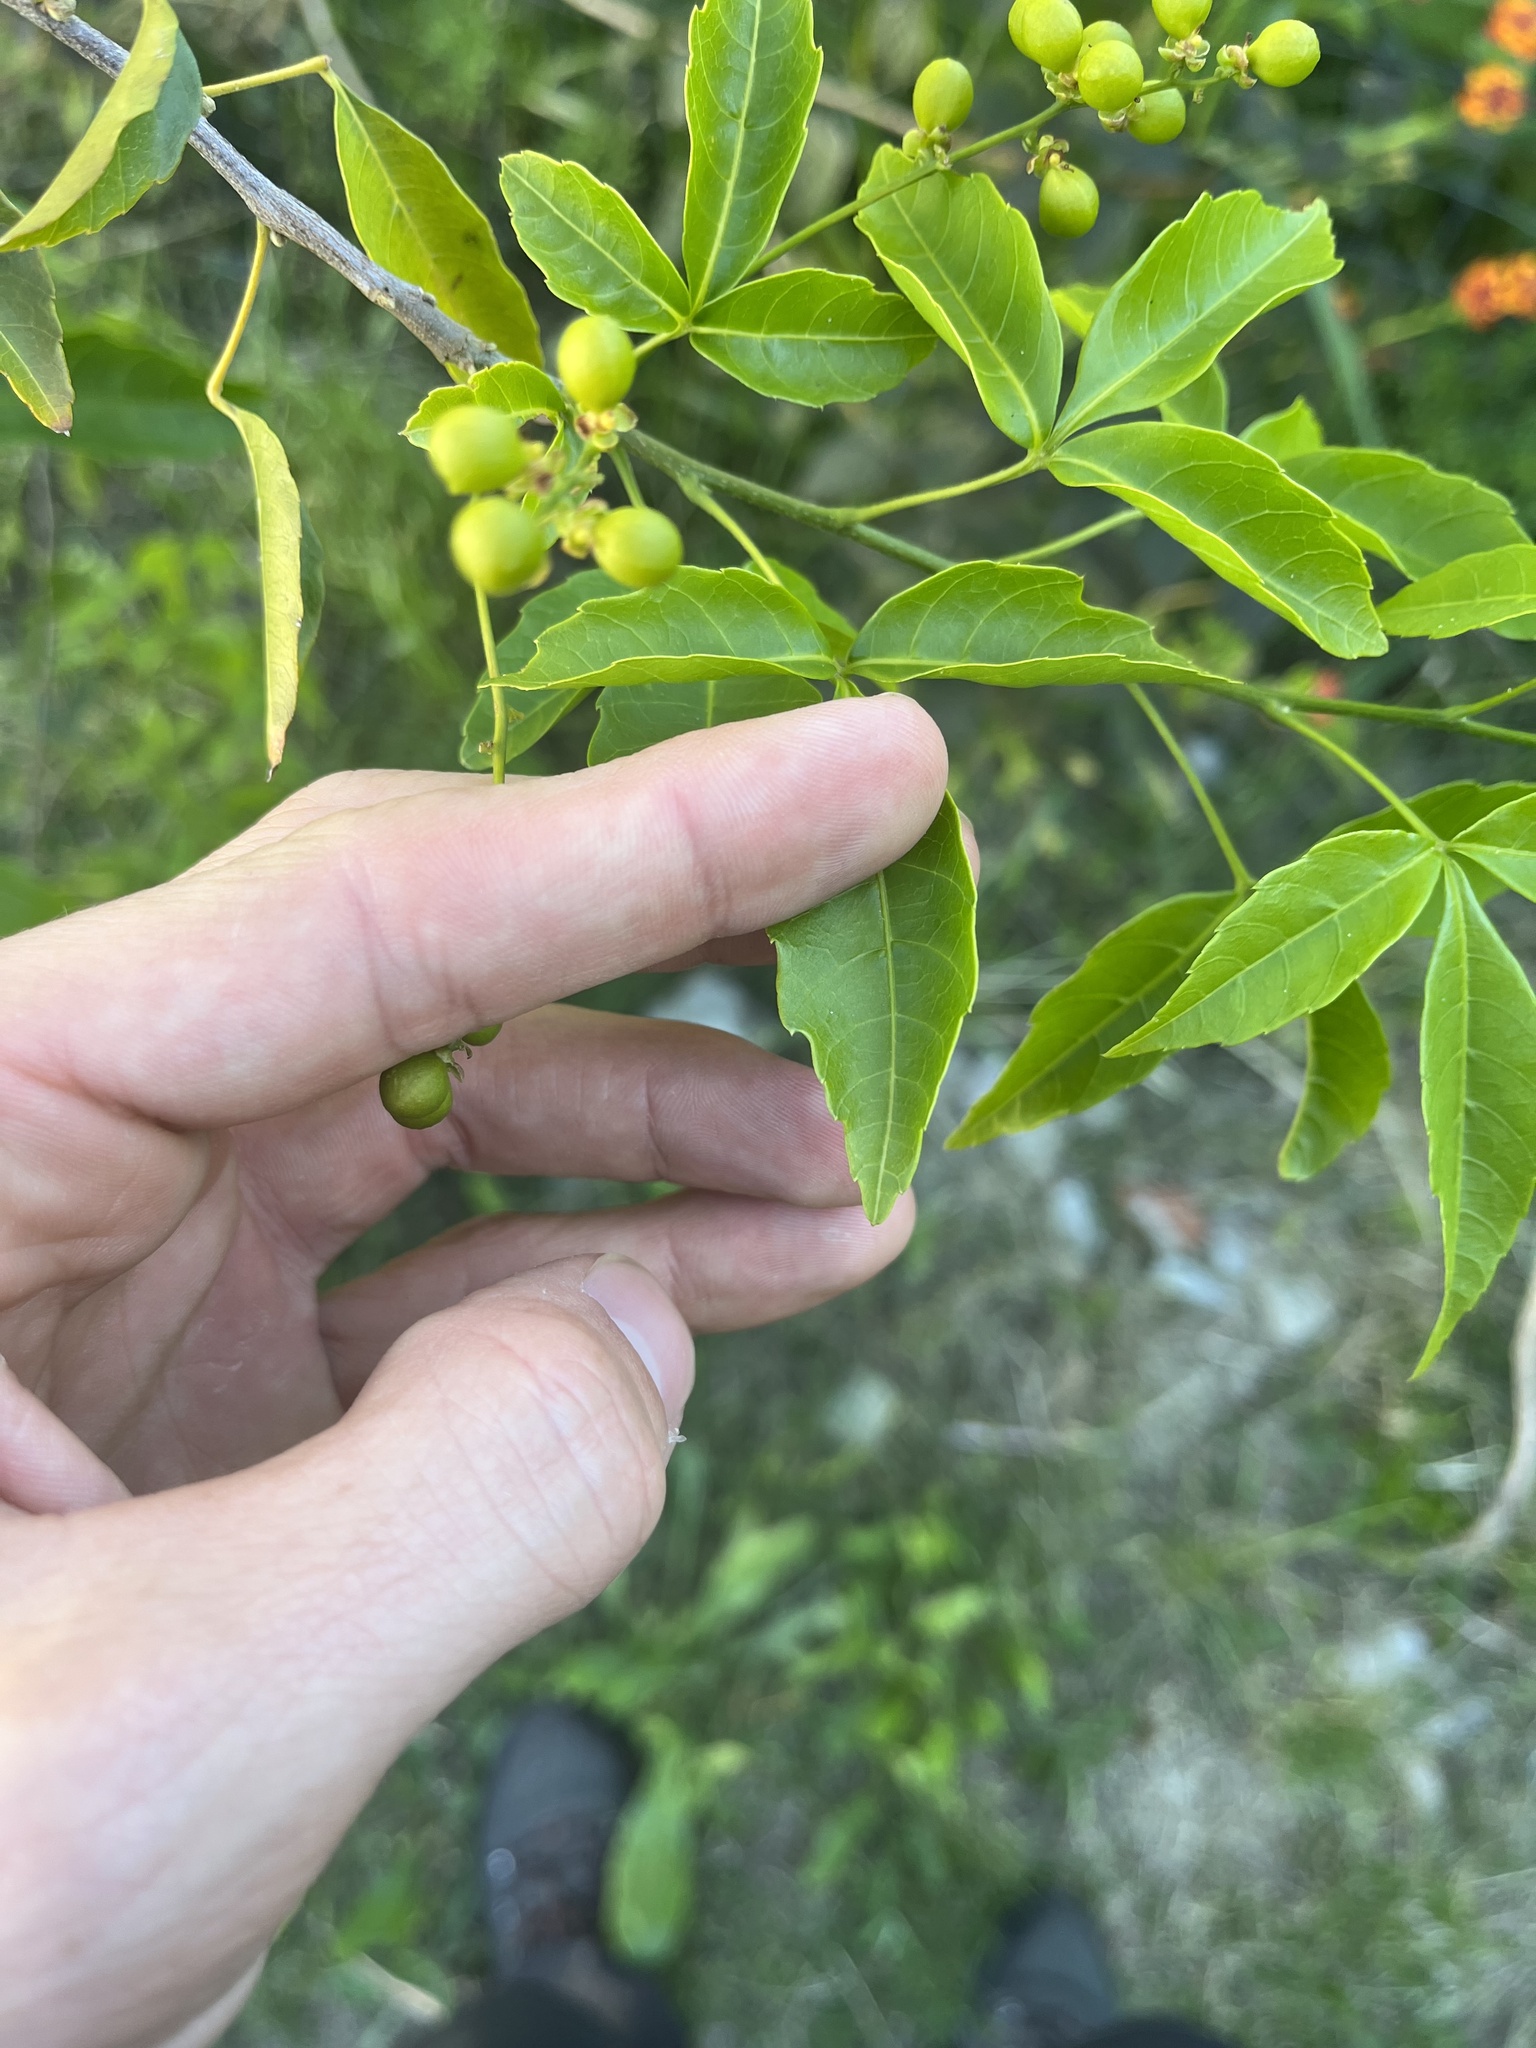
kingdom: Plantae
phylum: Tracheophyta
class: Magnoliopsida
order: Sapindales
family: Sapindaceae
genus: Allophylus
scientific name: Allophylus edulis
